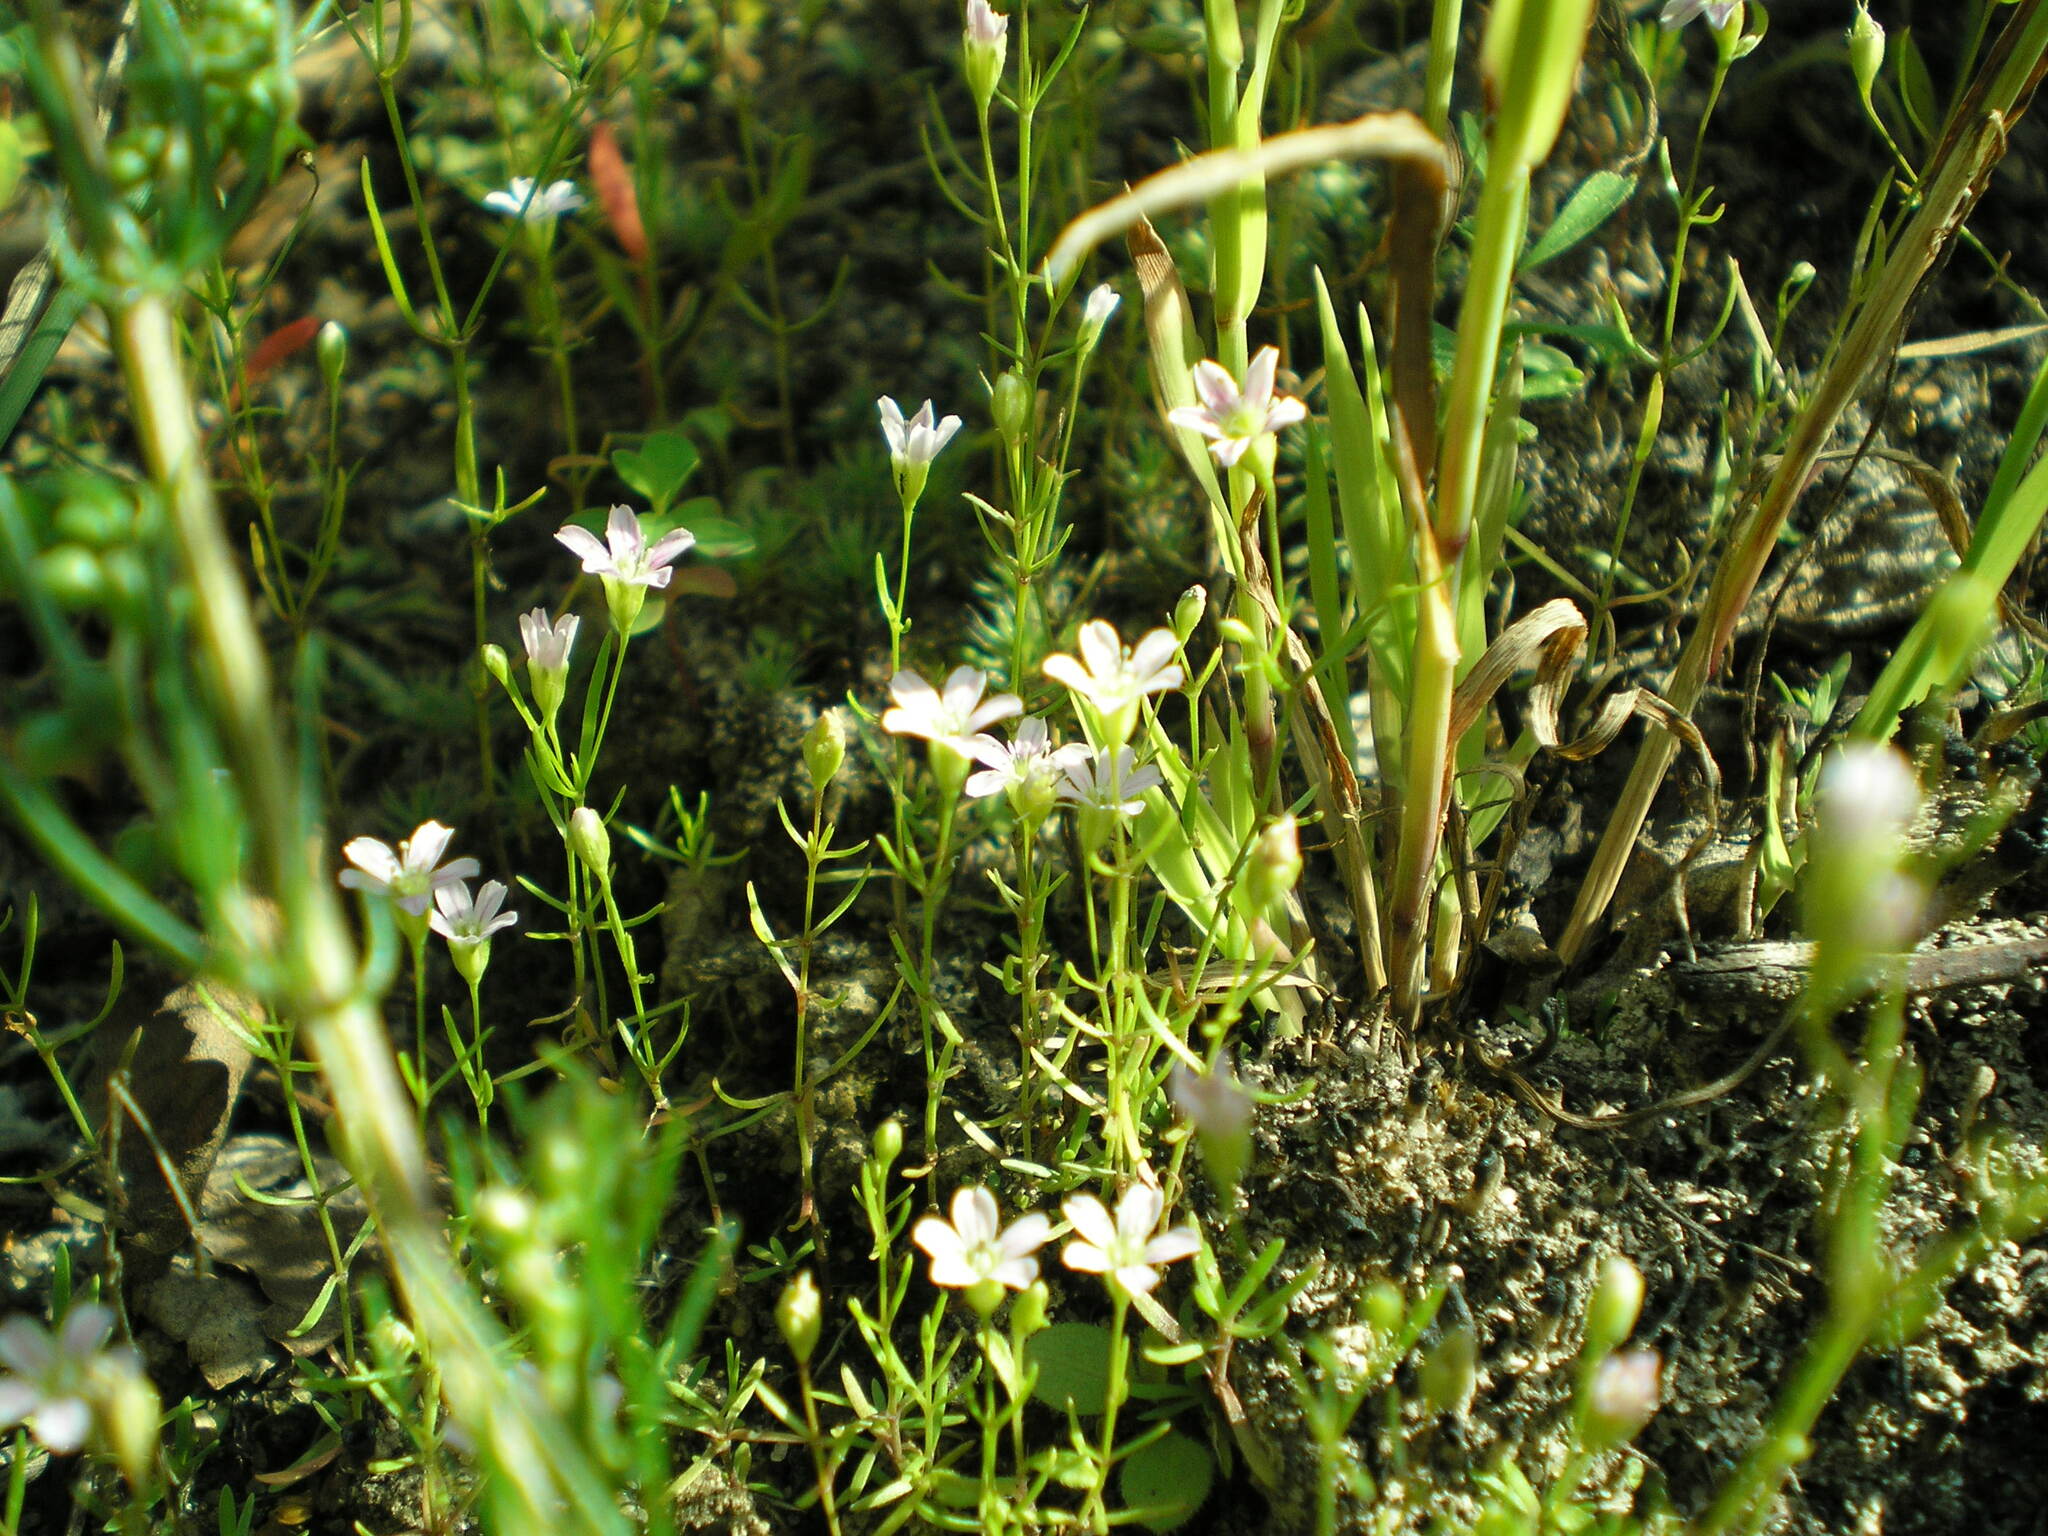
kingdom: Plantae
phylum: Tracheophyta
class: Magnoliopsida
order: Caryophyllales
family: Caryophyllaceae
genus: Psammophiliella
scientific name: Psammophiliella muralis
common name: Cushion baby's-breath
